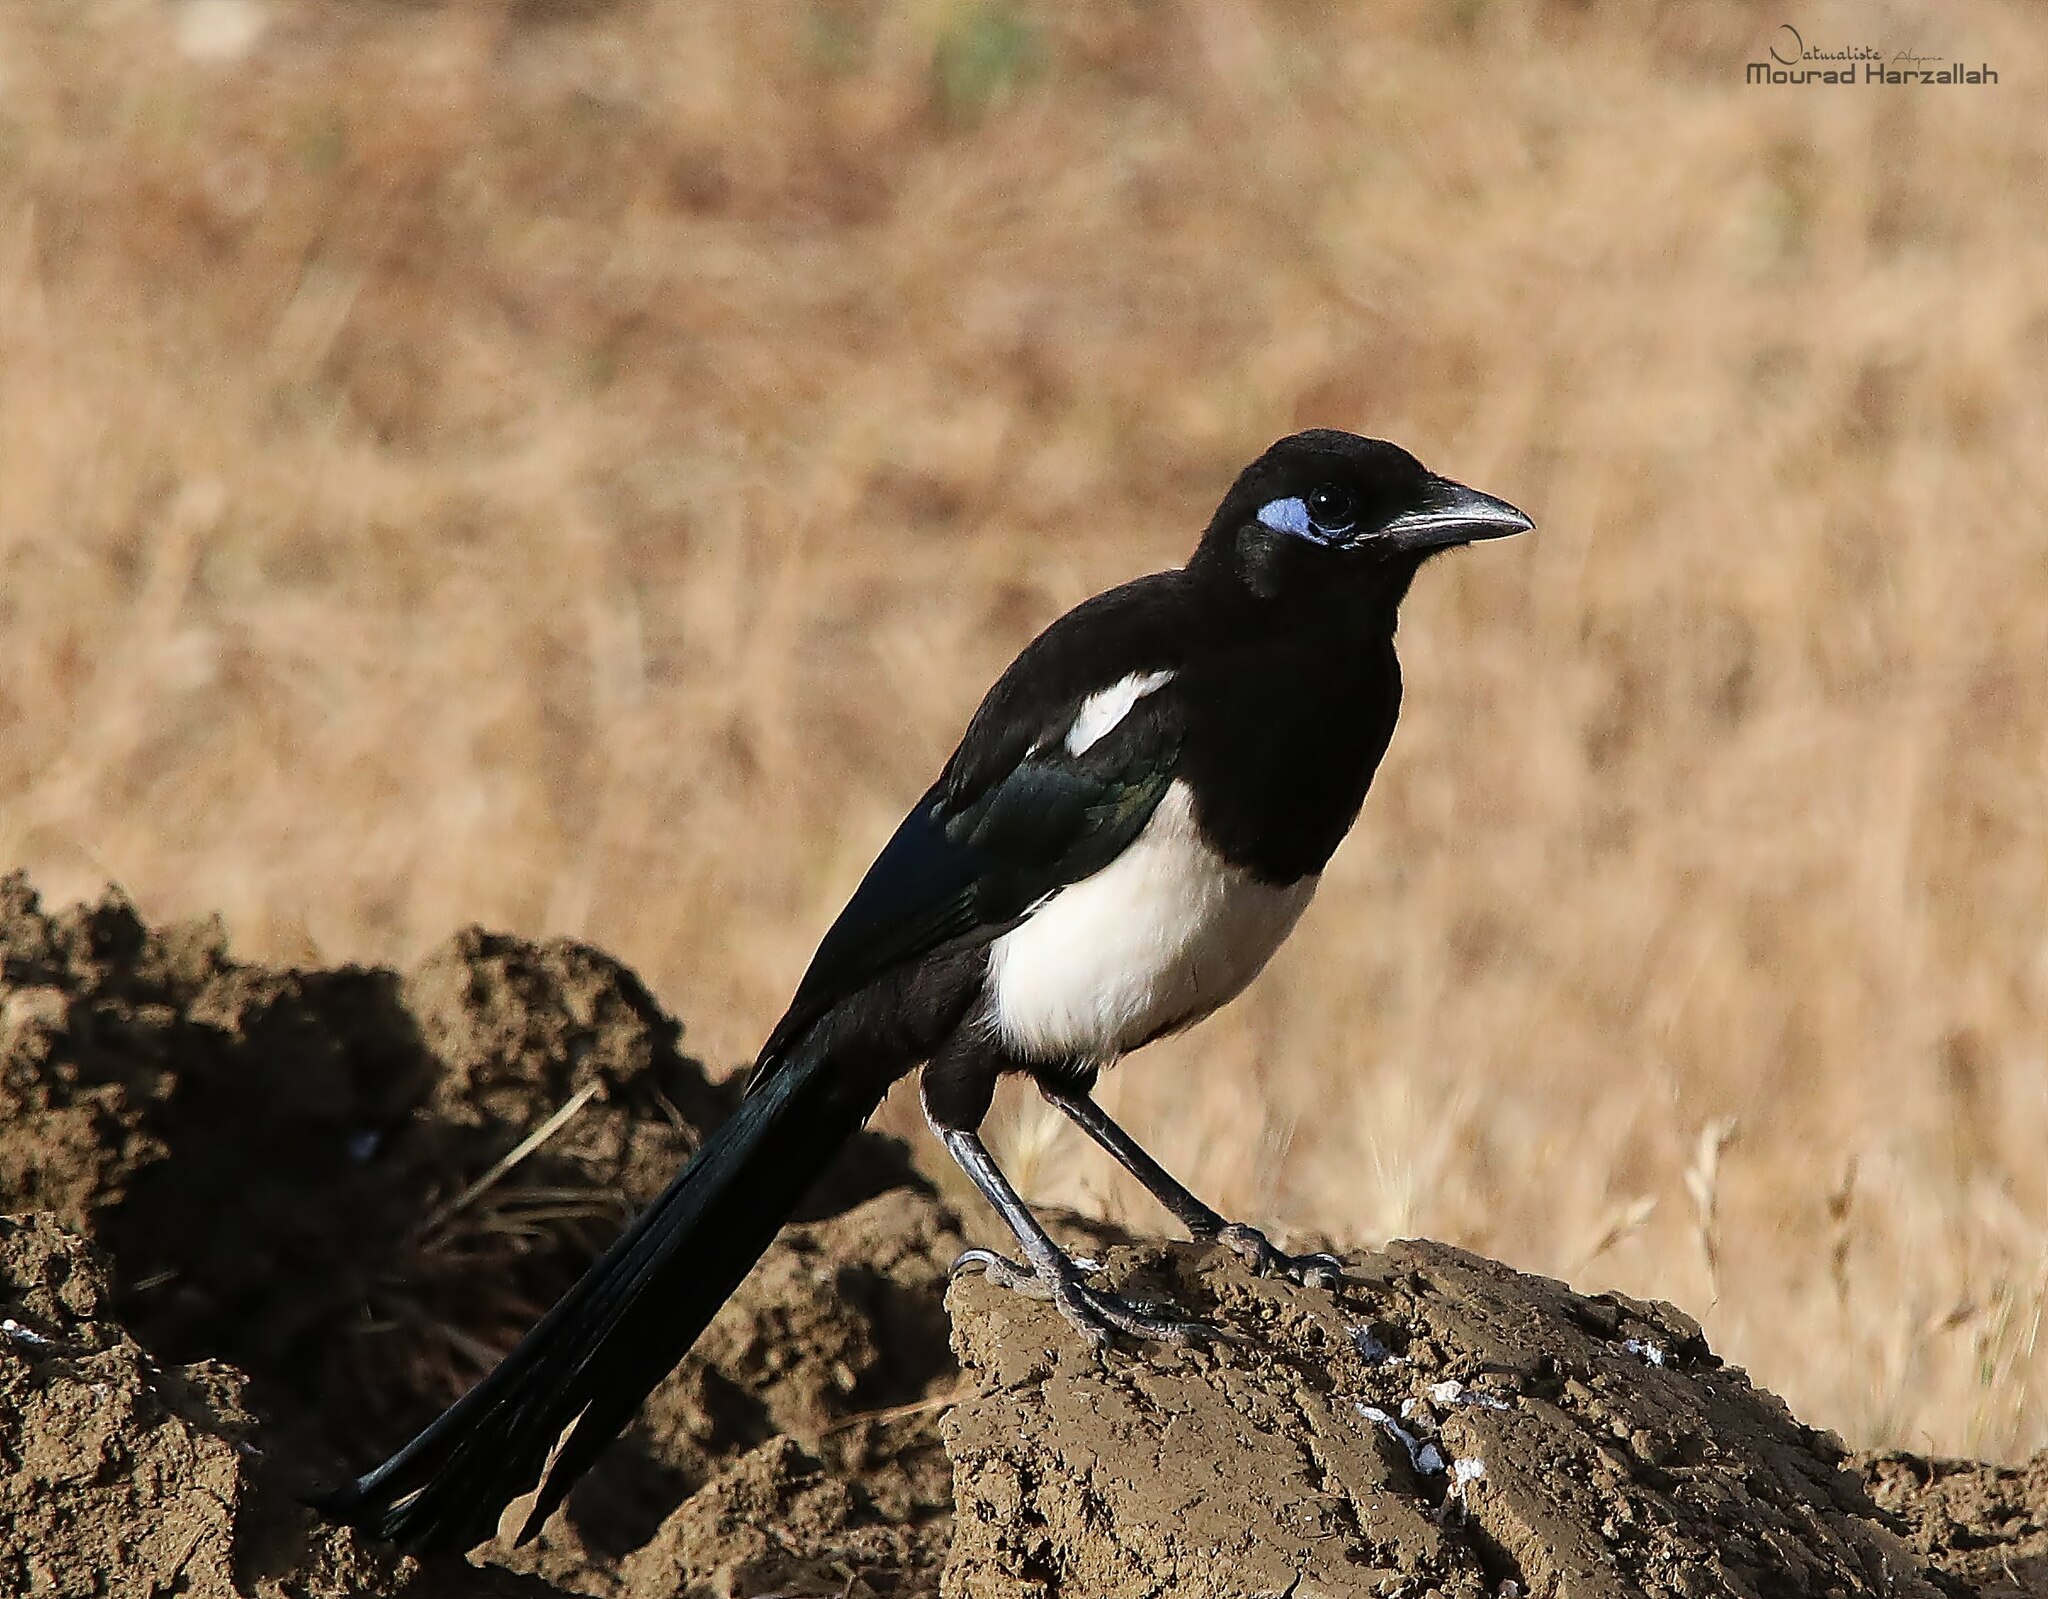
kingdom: Animalia
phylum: Chordata
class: Aves
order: Passeriformes
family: Corvidae
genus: Pica
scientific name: Pica mauritanica
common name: Maghreb magpie
